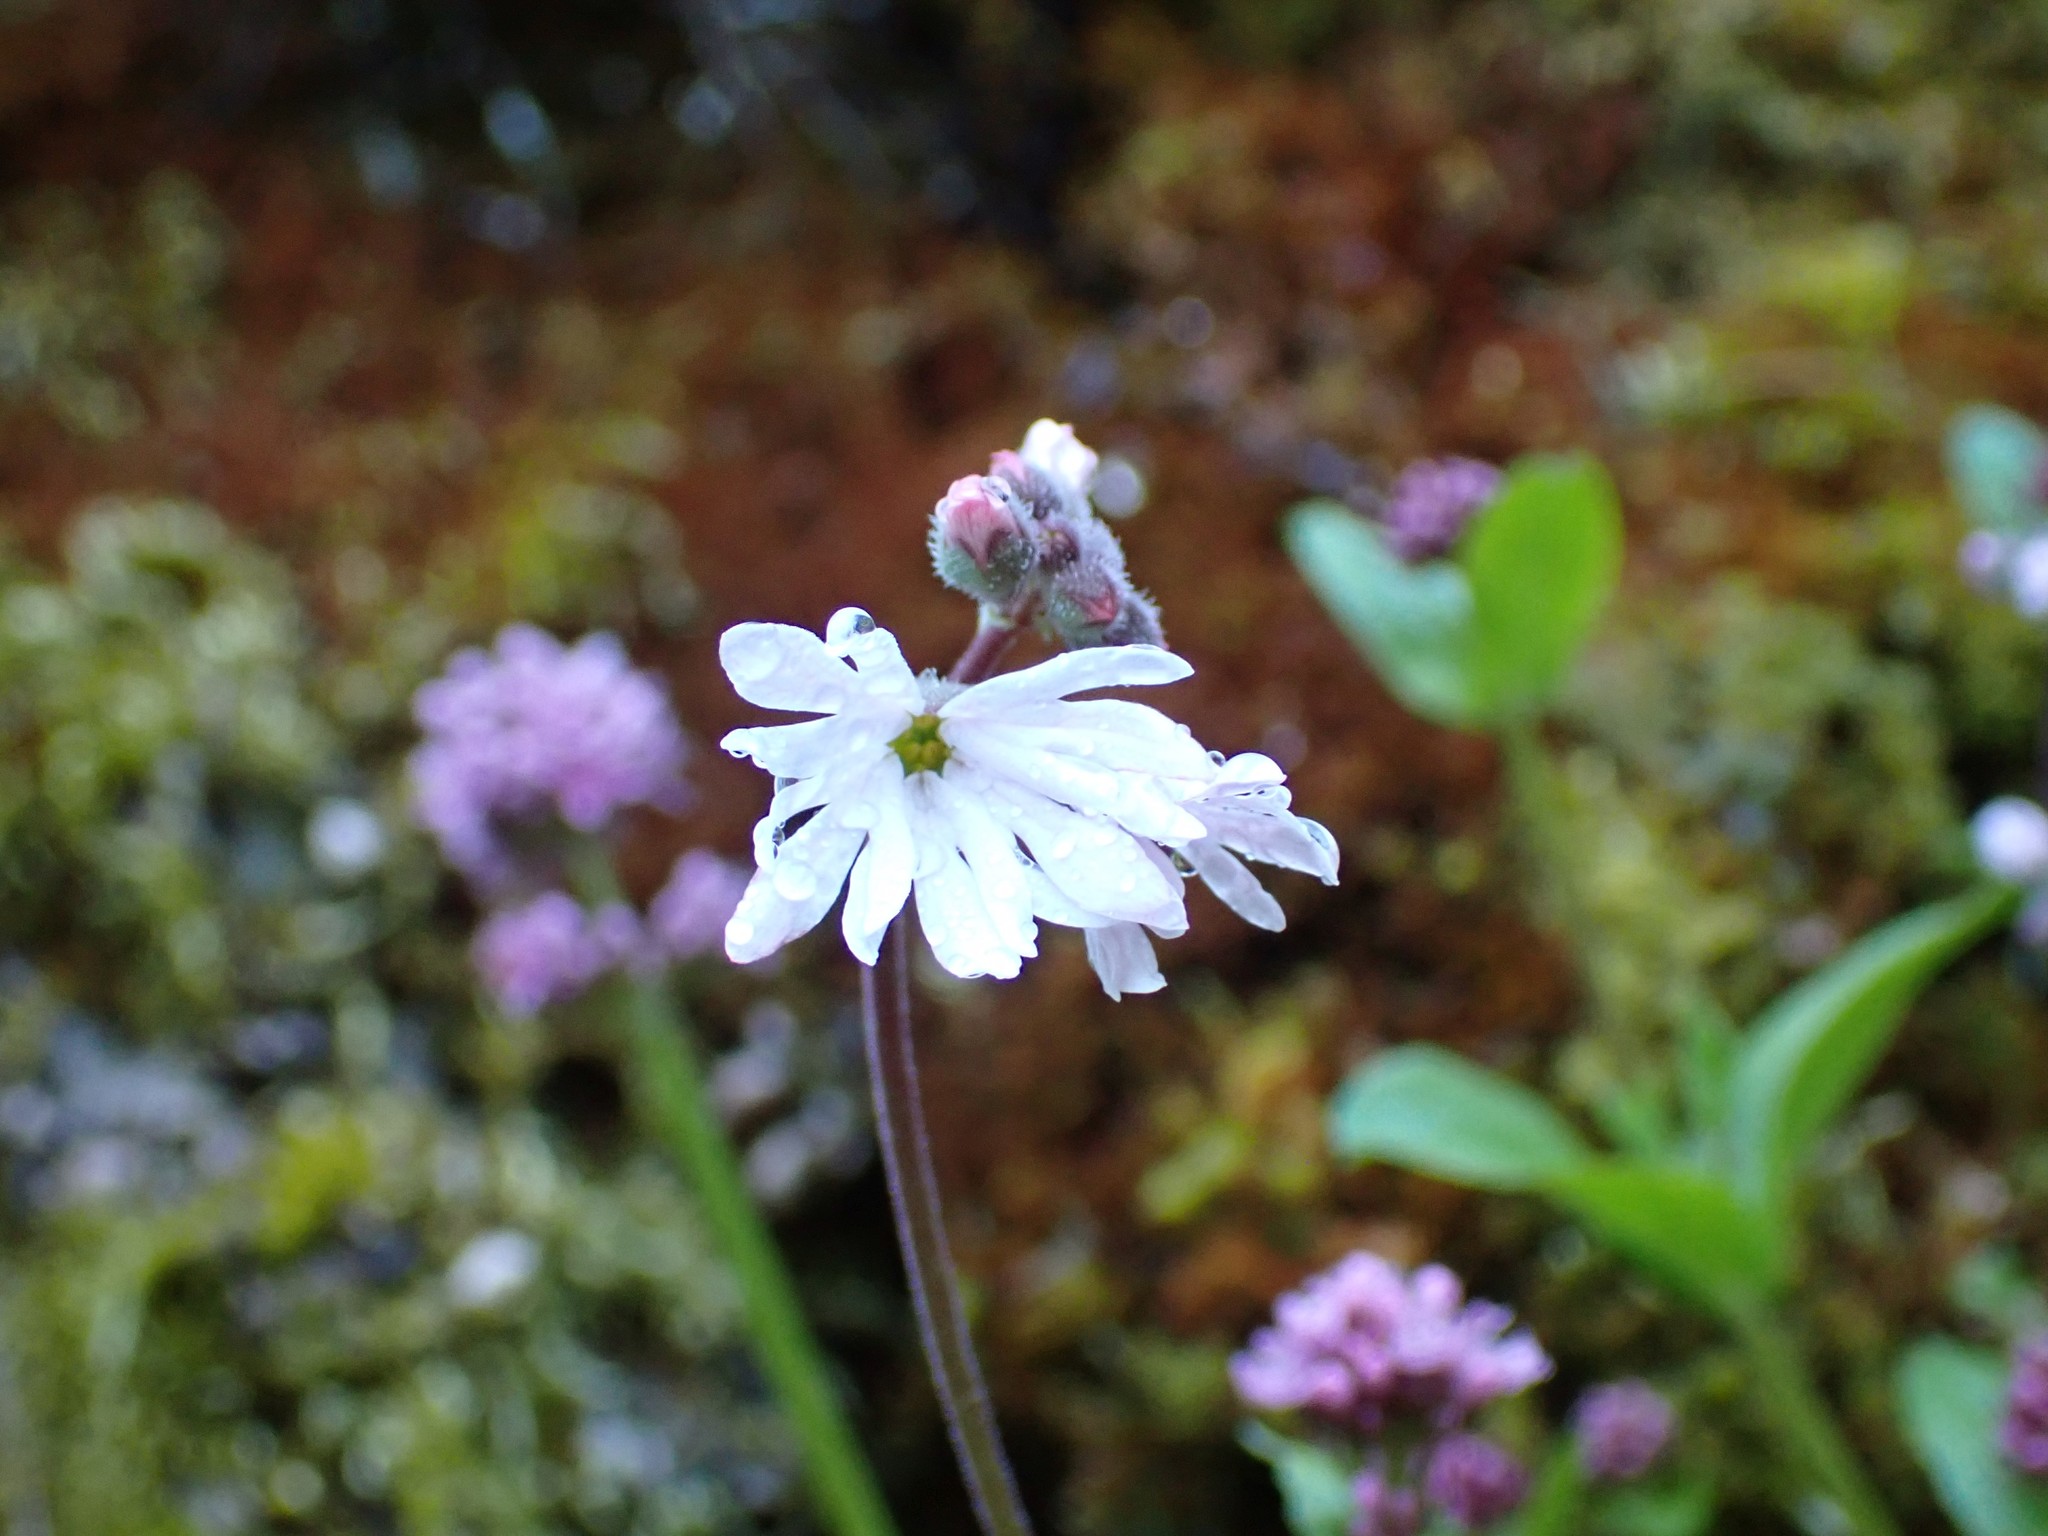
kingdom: Plantae
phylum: Tracheophyta
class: Magnoliopsida
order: Saxifragales
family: Saxifragaceae
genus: Lithophragma
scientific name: Lithophragma parviflorum
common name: Small-flowered fringe-cup
